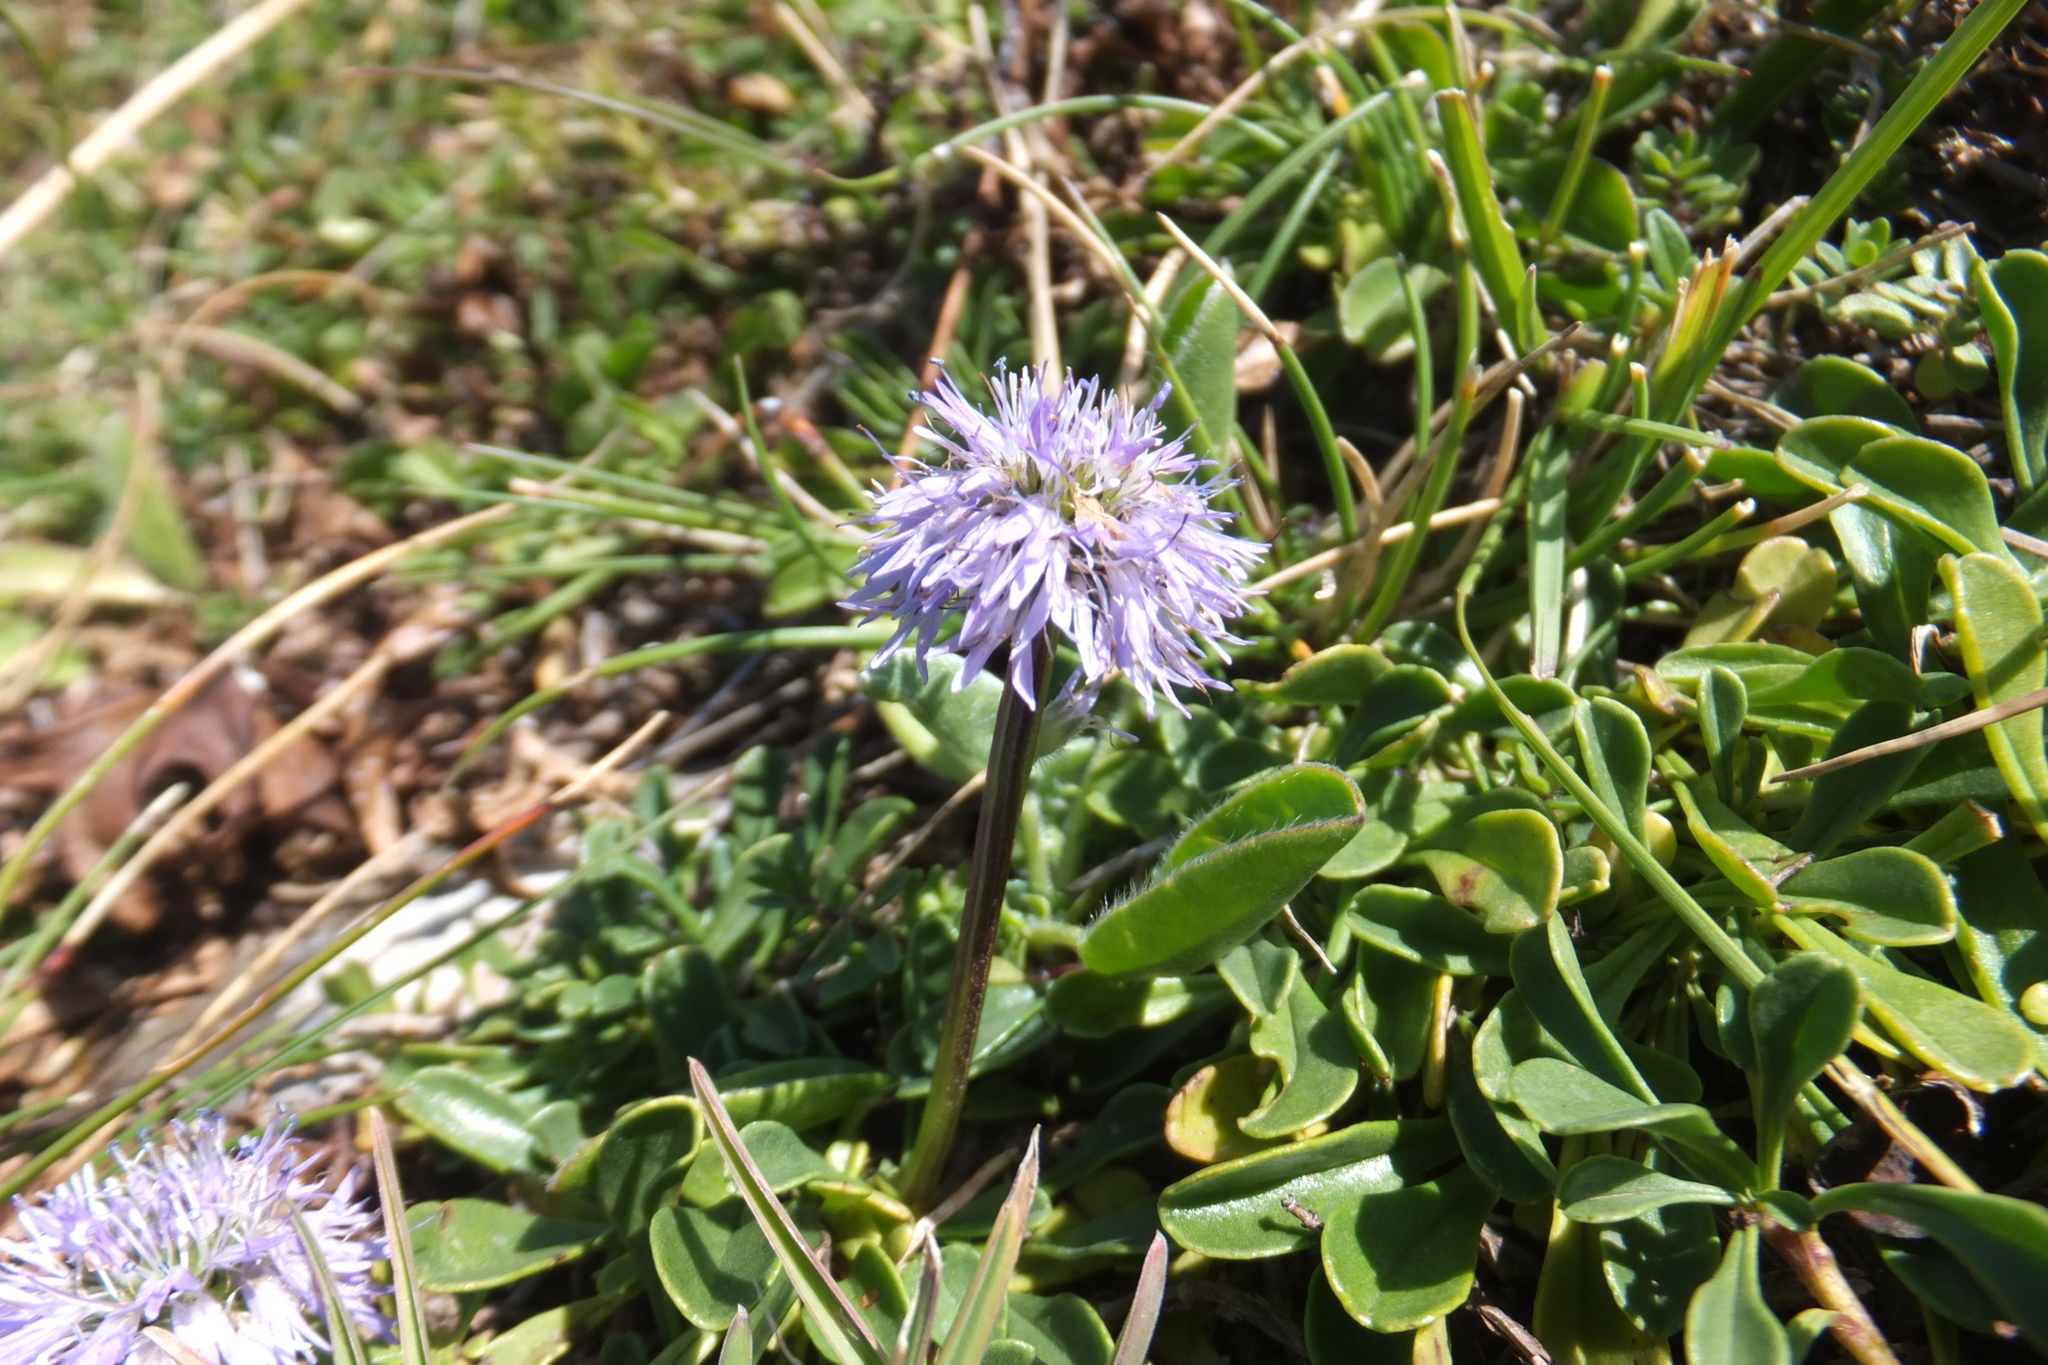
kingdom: Plantae
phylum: Tracheophyta
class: Magnoliopsida
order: Lamiales
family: Plantaginaceae
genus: Globularia
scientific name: Globularia meridionalis
